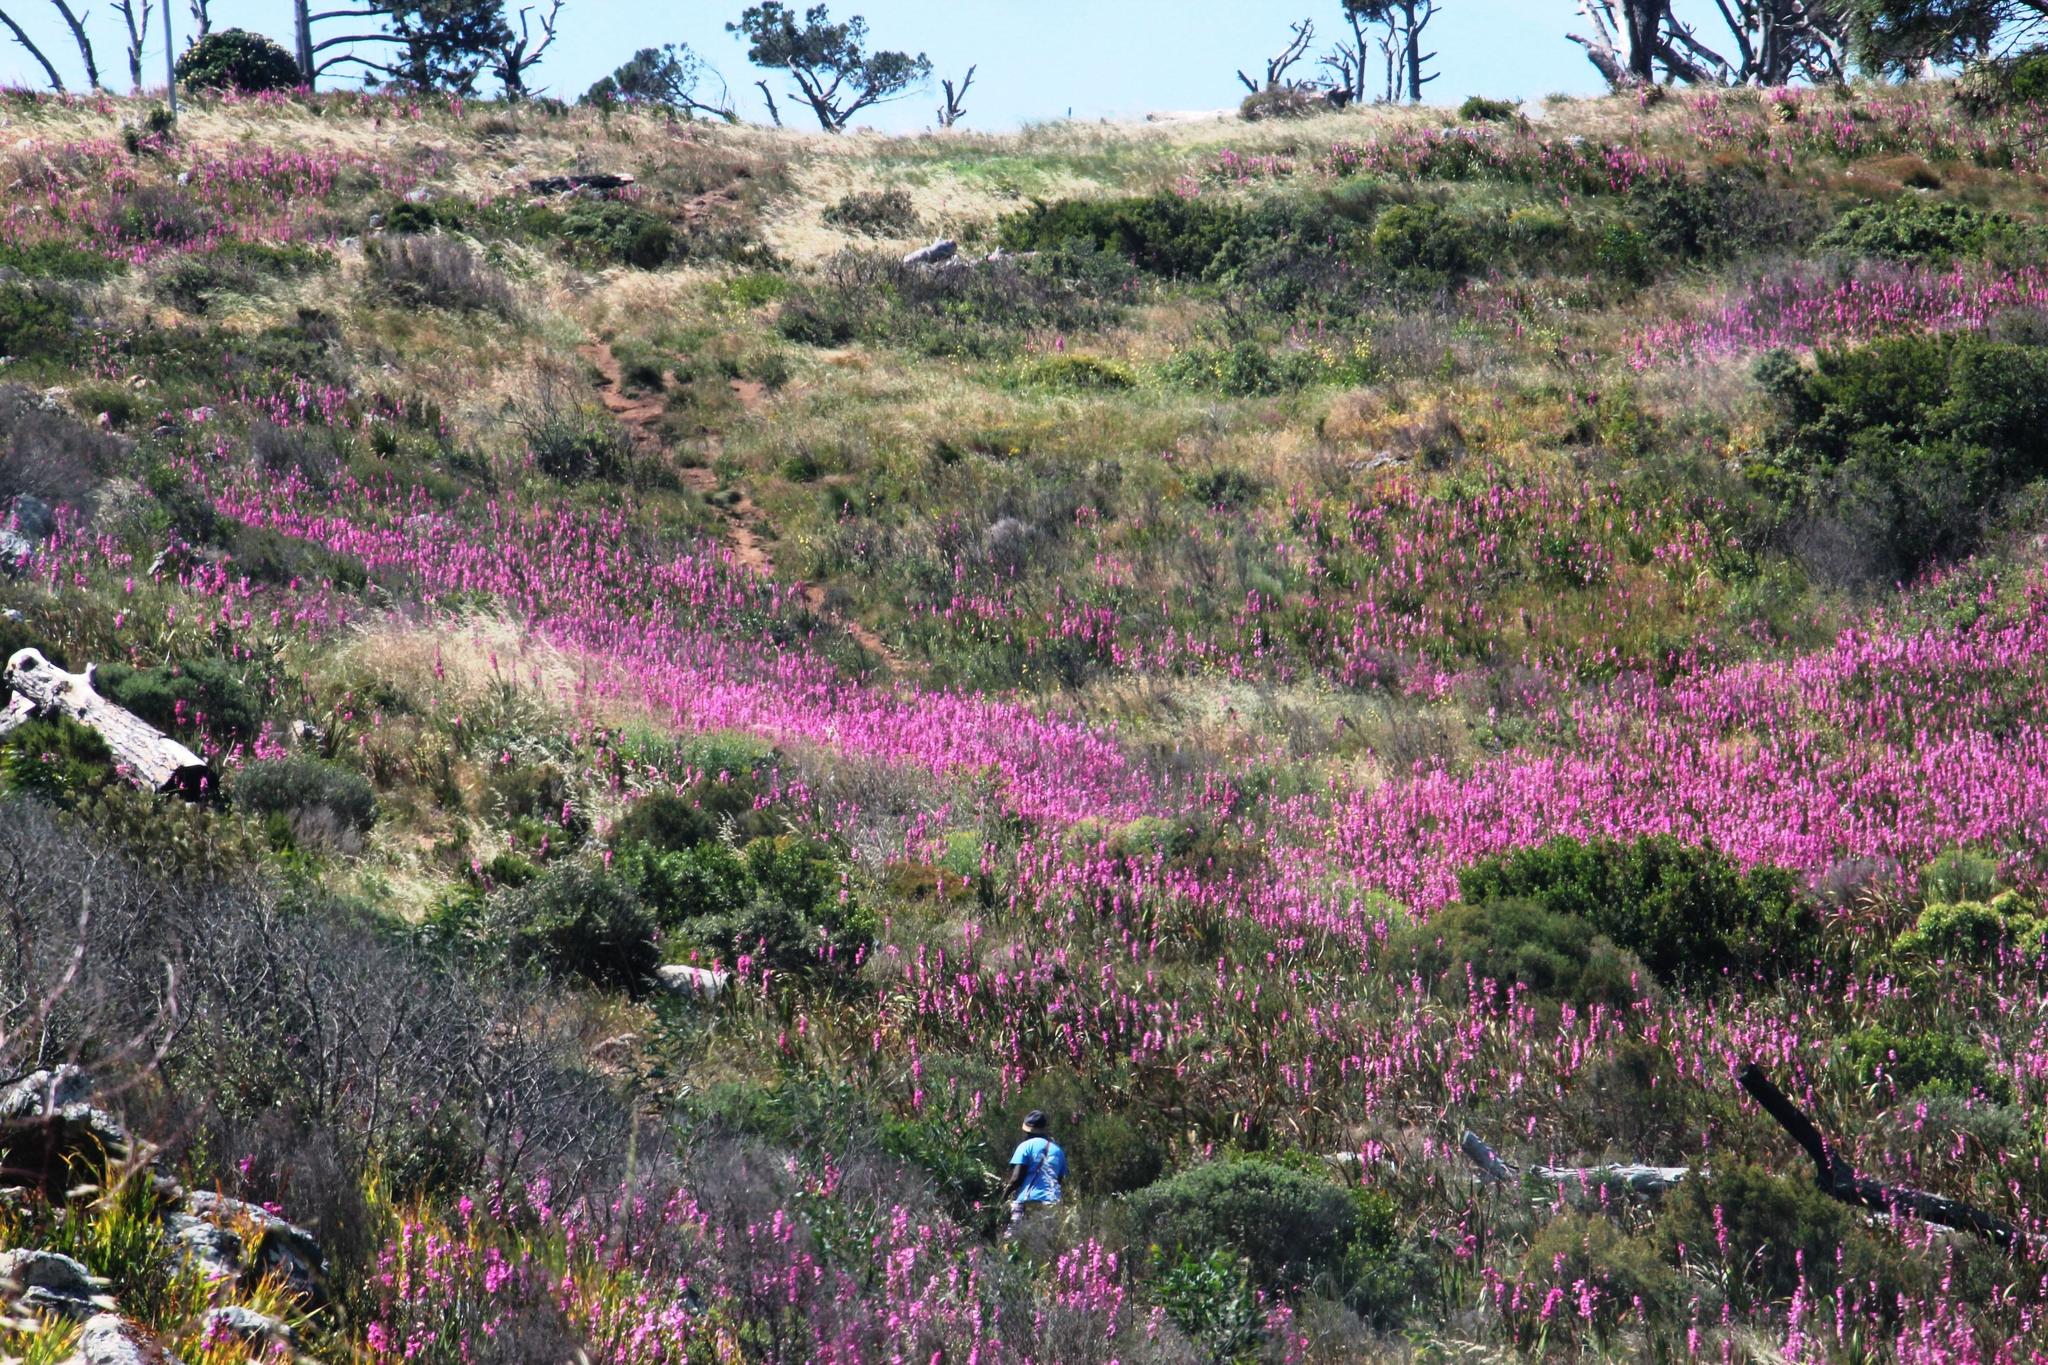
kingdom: Plantae
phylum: Tracheophyta
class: Liliopsida
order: Asparagales
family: Iridaceae
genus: Watsonia
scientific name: Watsonia borbonica
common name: Bugle-lily
